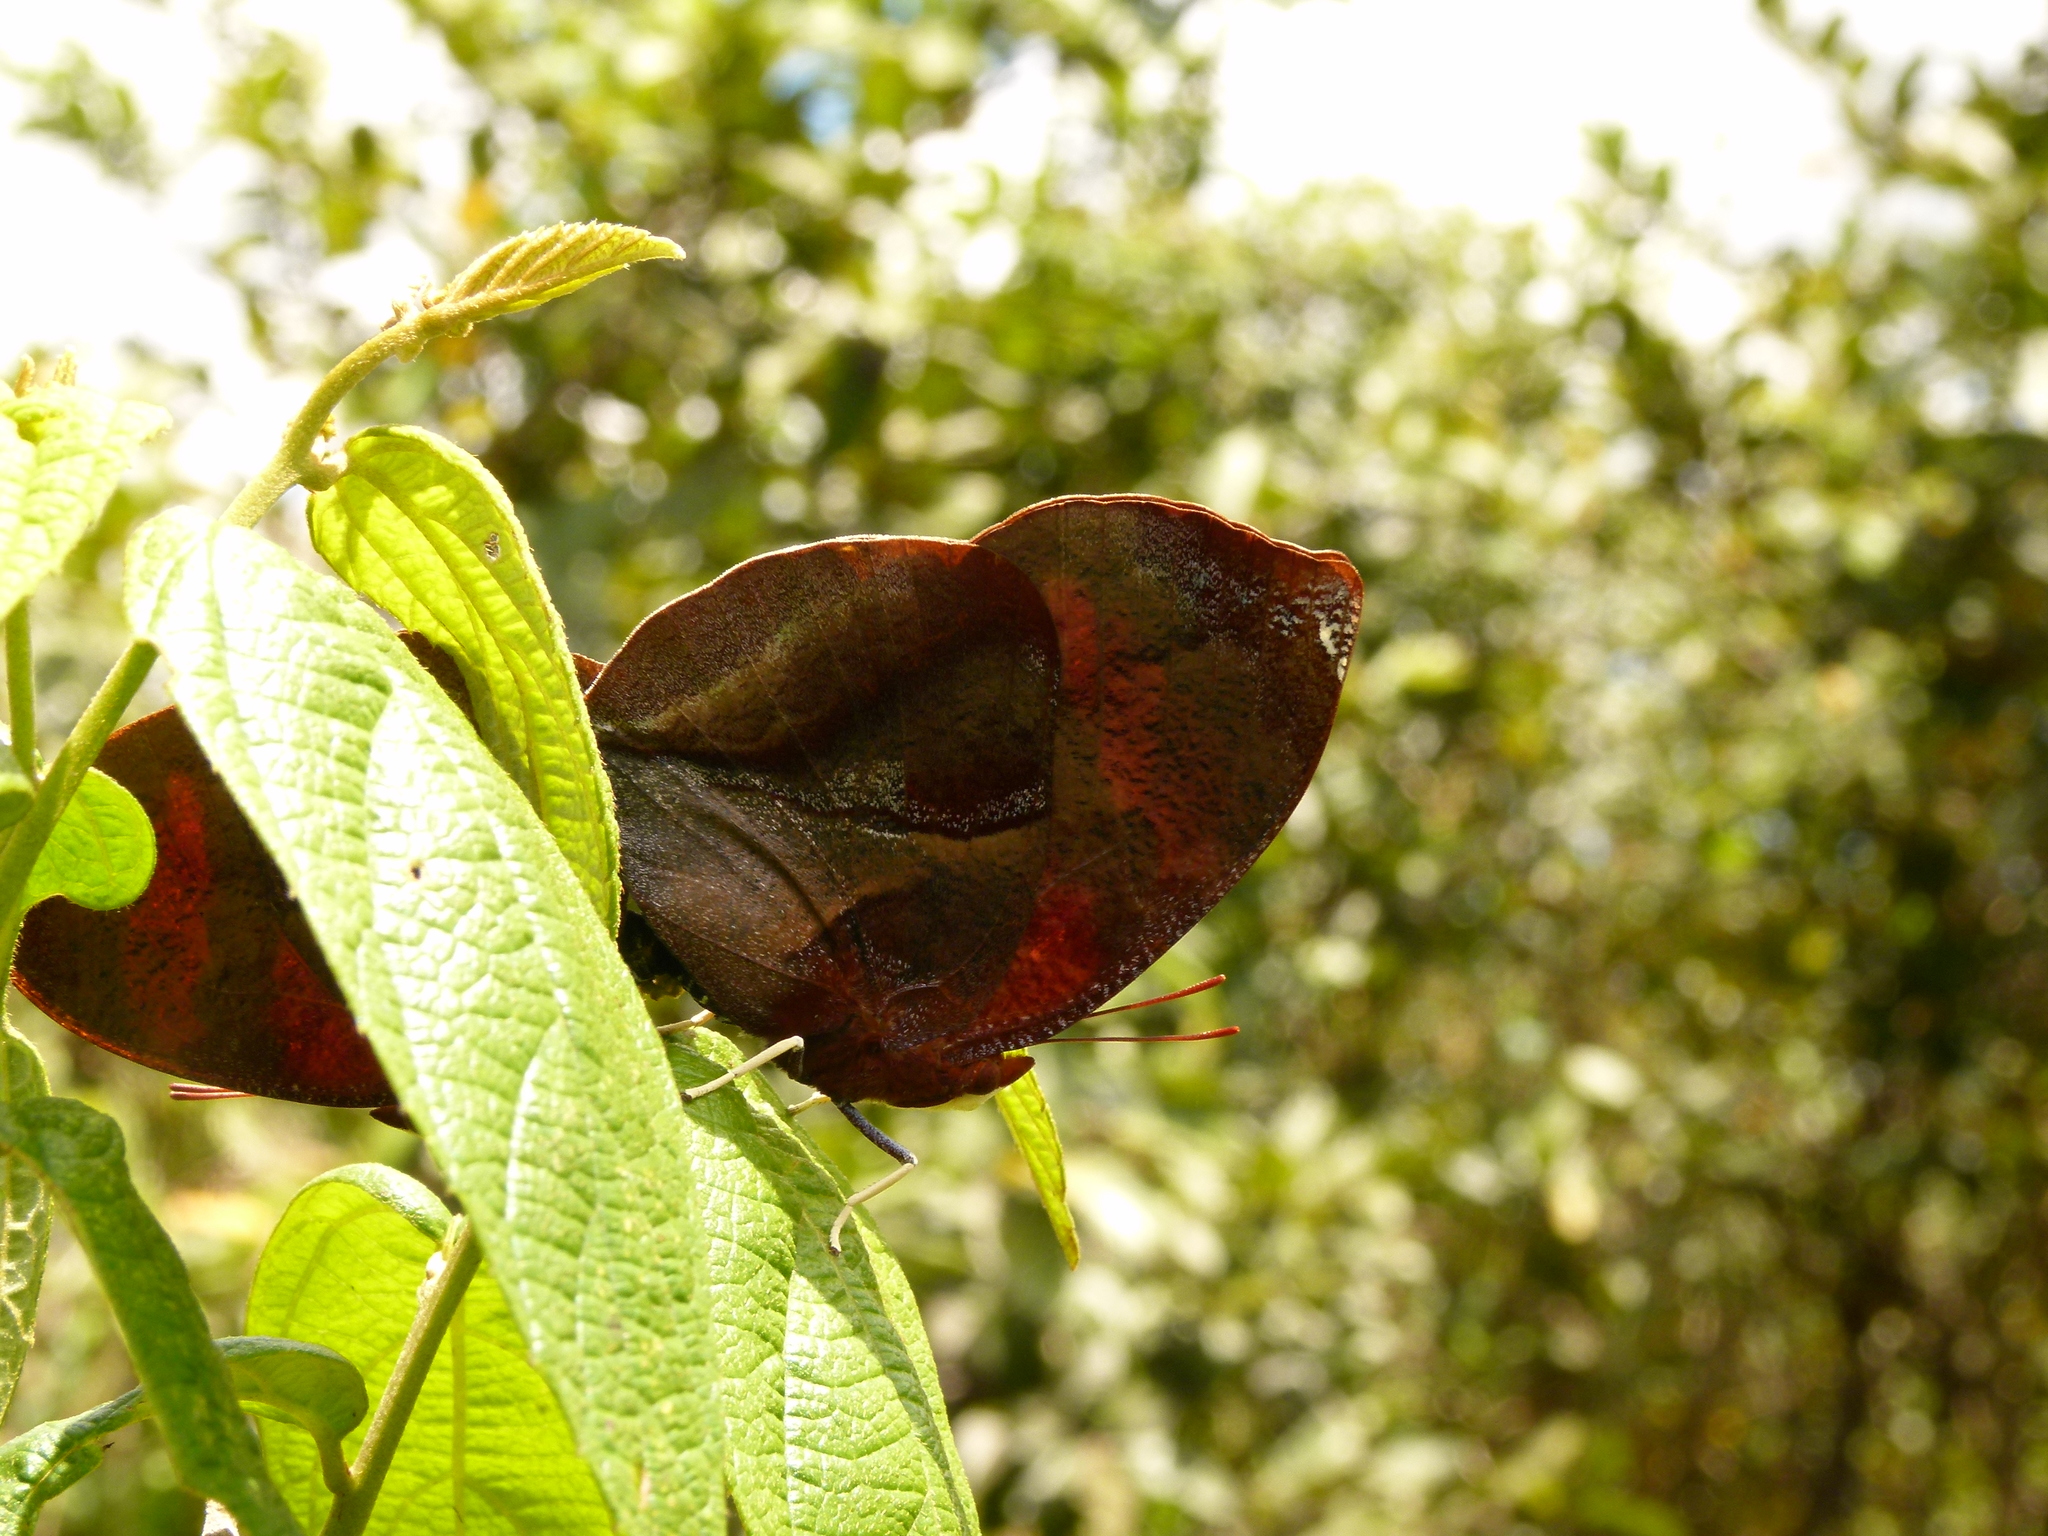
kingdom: Animalia
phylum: Arthropoda
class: Insecta
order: Lepidoptera
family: Nymphalidae
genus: Siderone
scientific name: Siderone galanthis
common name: Red-striped leafwing
